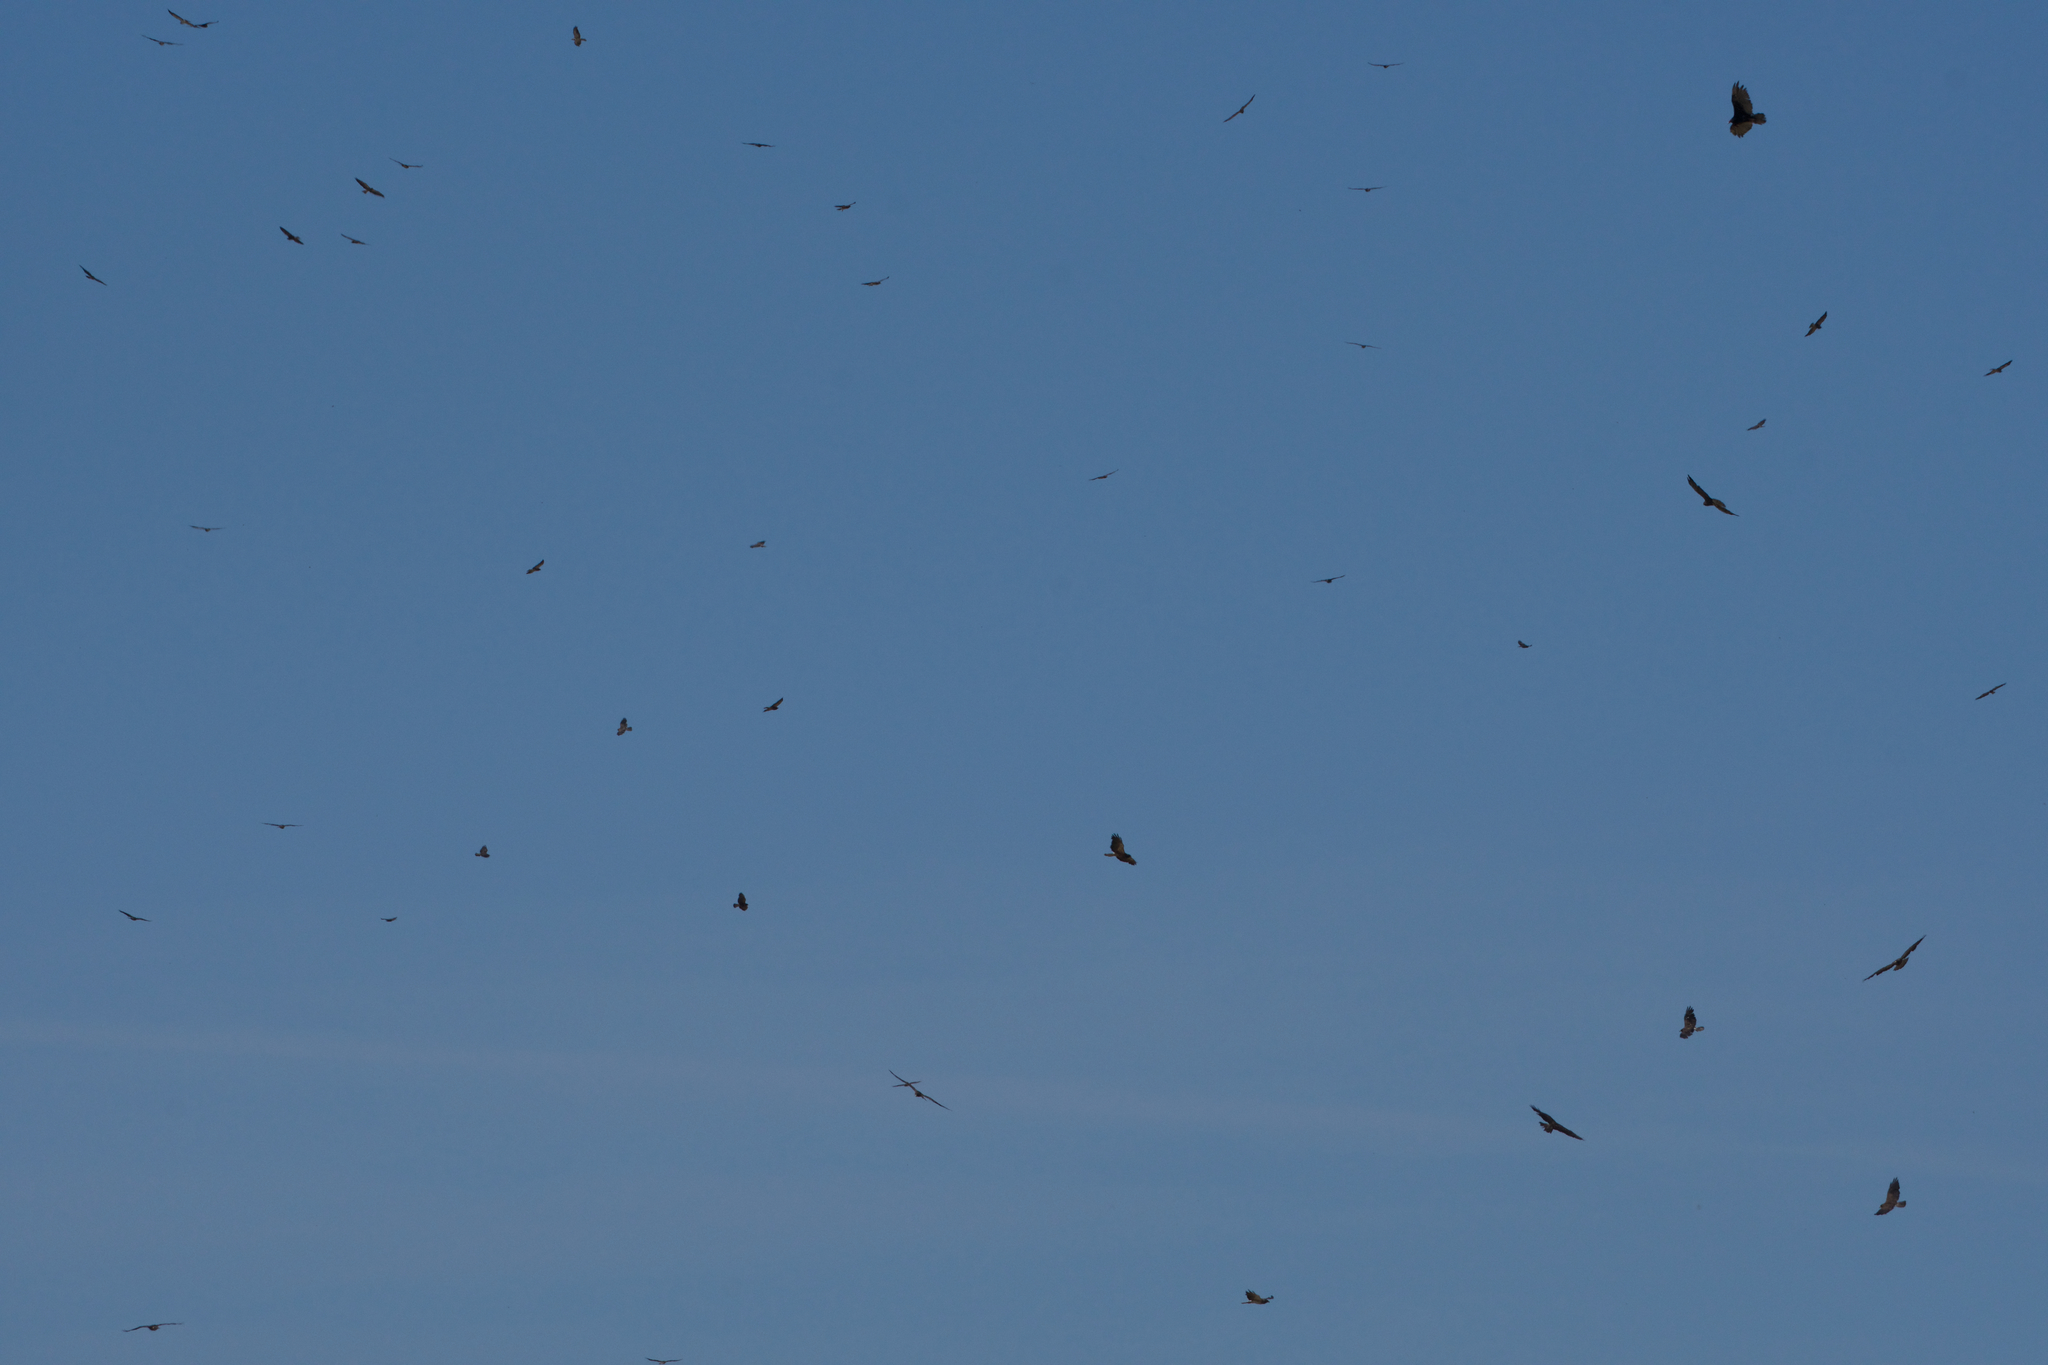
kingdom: Animalia
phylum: Chordata
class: Aves
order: Accipitriformes
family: Accipitridae
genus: Buteo
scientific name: Buteo swainsoni
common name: Swainson's hawk
